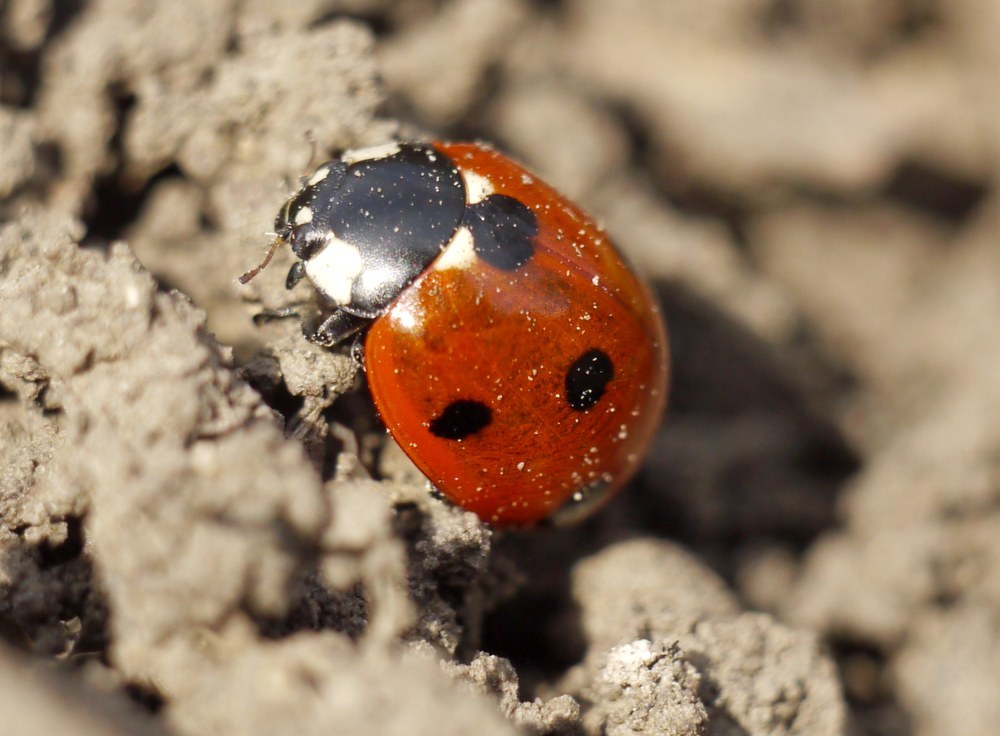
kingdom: Animalia
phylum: Arthropoda
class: Insecta
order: Coleoptera
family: Coccinellidae
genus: Coccinella
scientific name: Coccinella septempunctata
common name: Sevenspotted lady beetle
